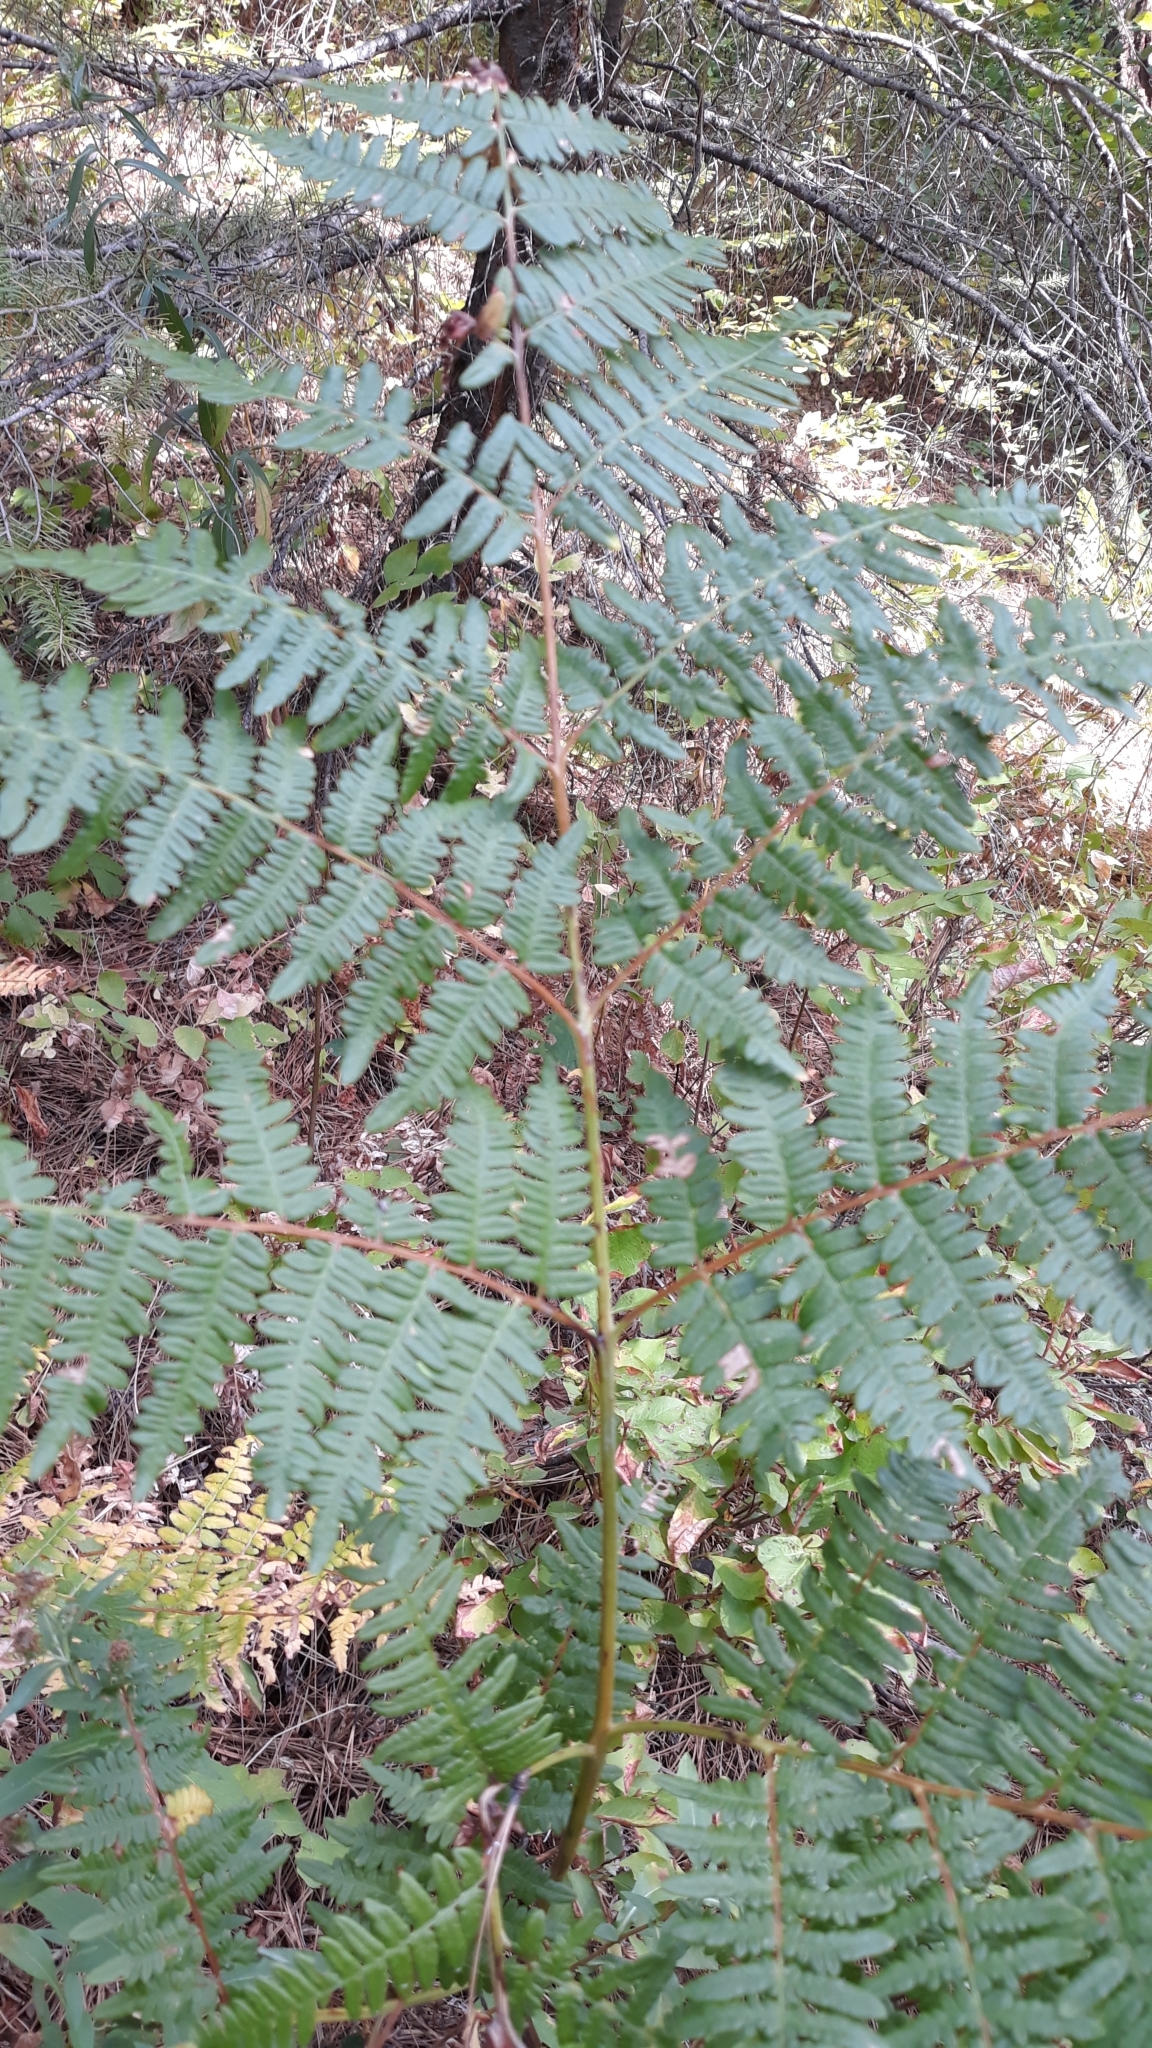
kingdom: Plantae
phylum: Tracheophyta
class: Polypodiopsida
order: Polypodiales
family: Dennstaedtiaceae
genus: Pteridium
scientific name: Pteridium aquilinum
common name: Bracken
